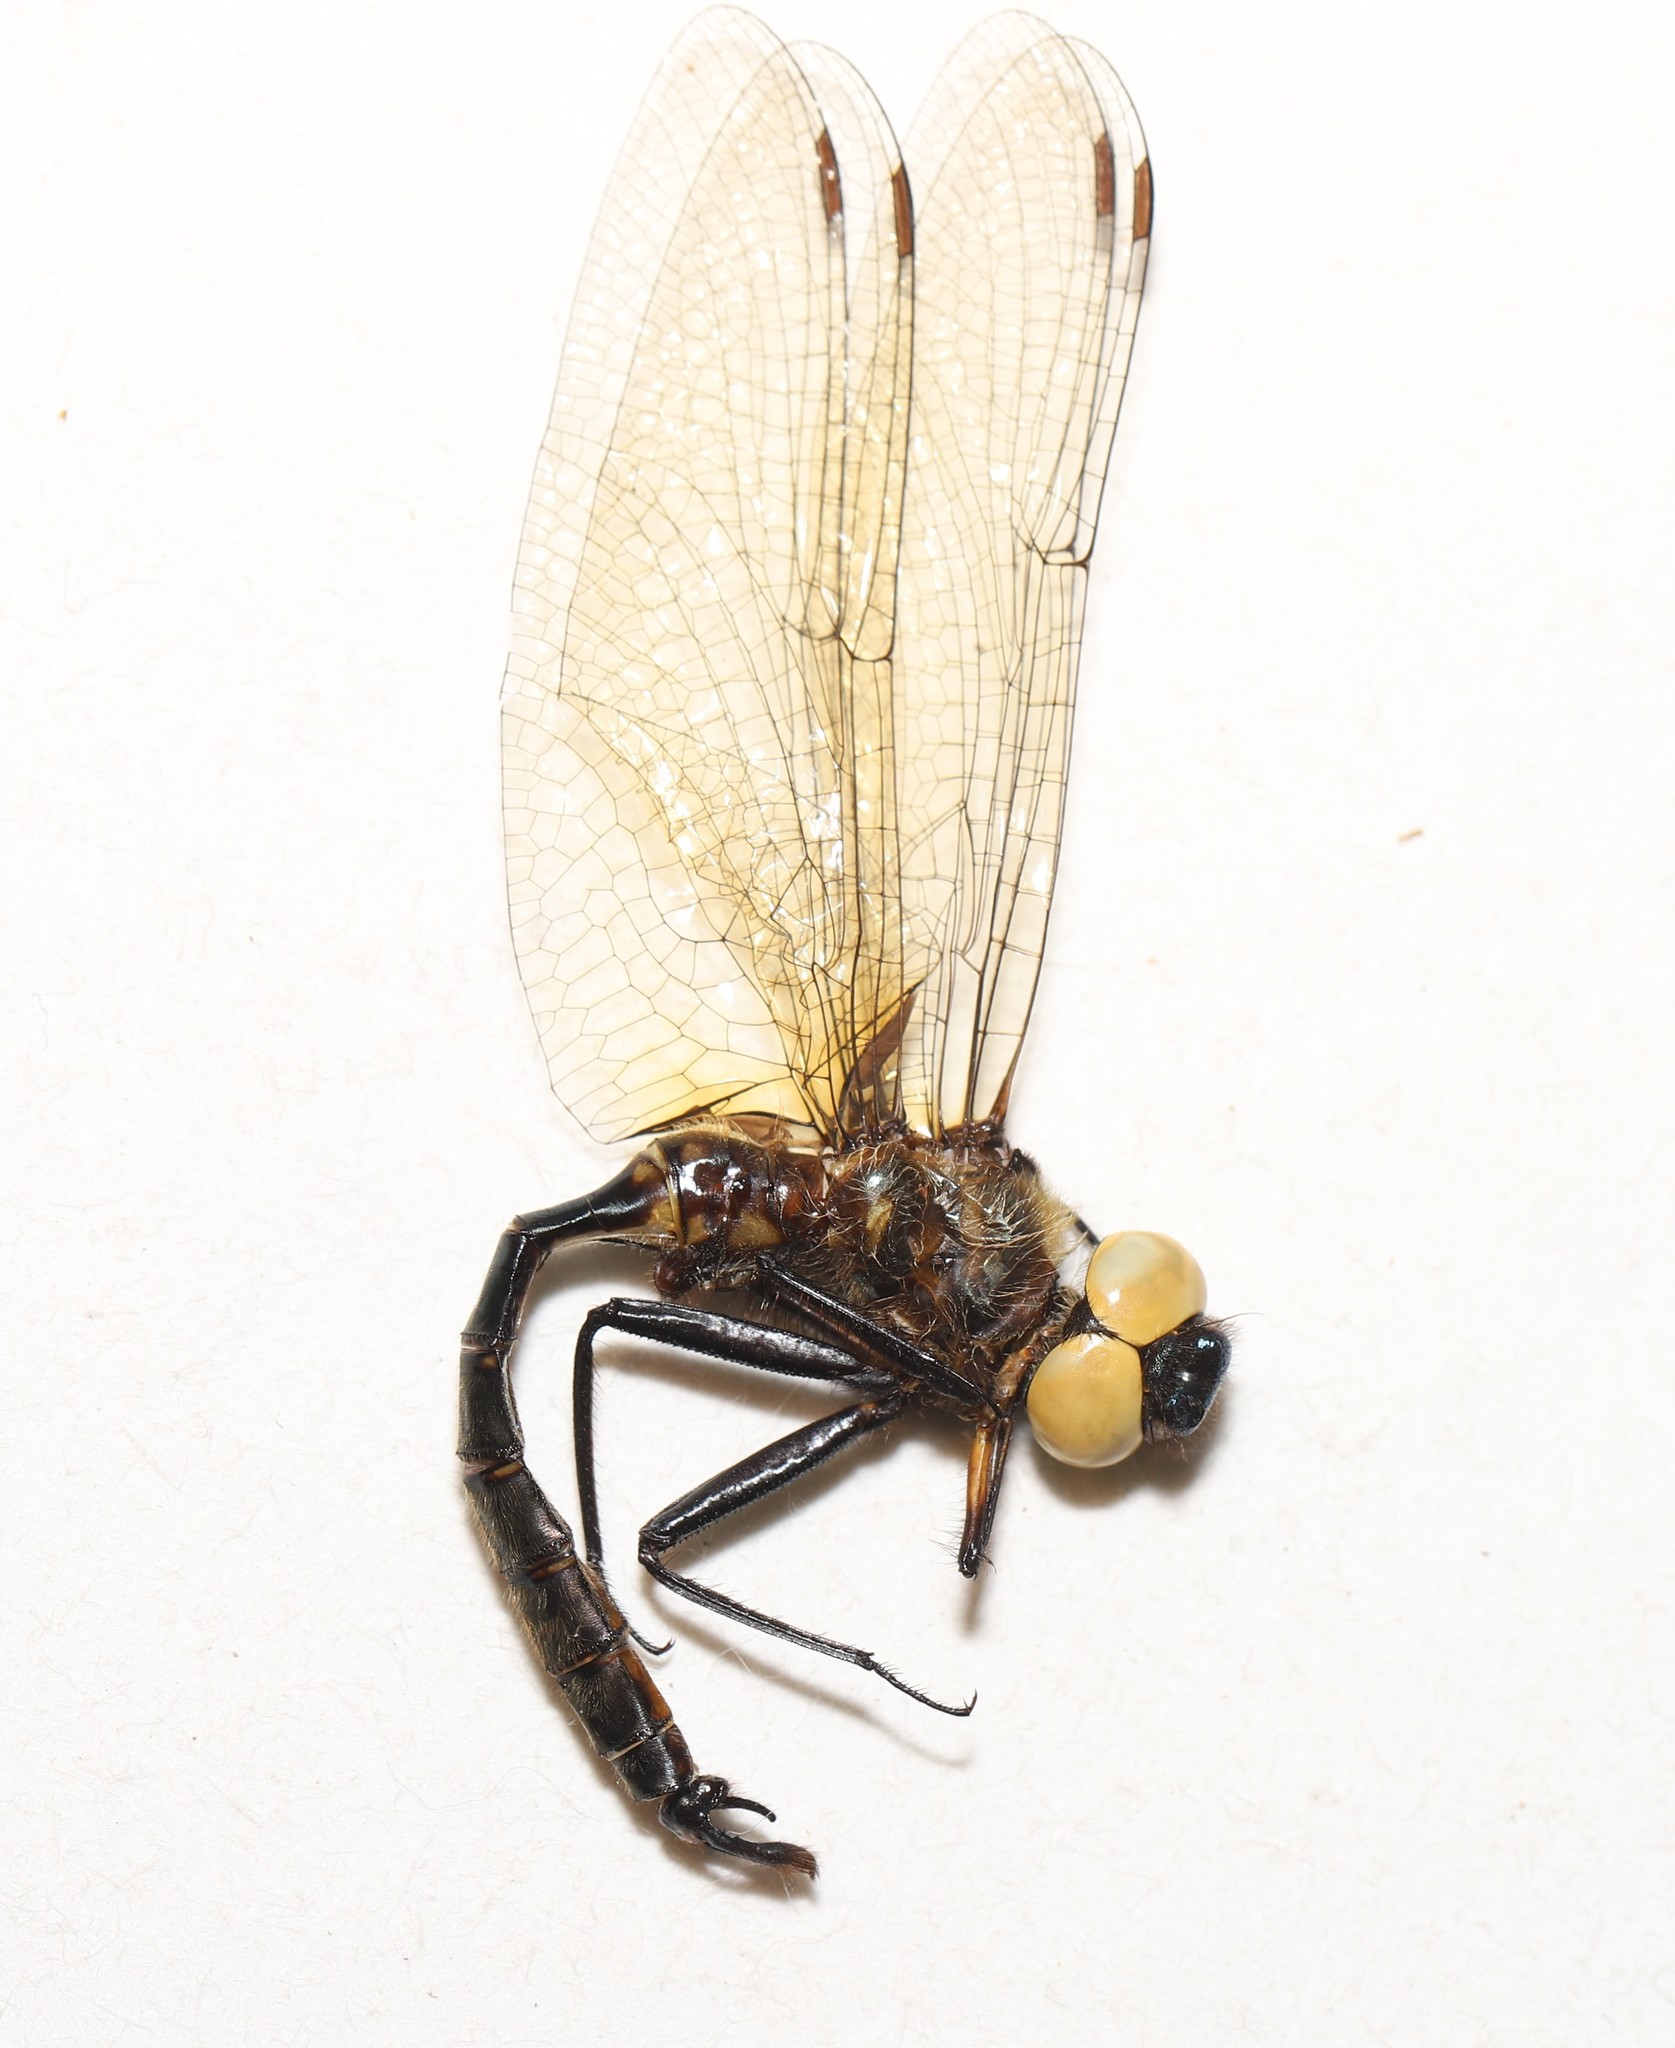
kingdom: Animalia
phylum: Arthropoda
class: Insecta
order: Odonata
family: Corduliidae
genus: Somatochlora
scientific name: Somatochlora walshii
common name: Brush-tipped emerald
